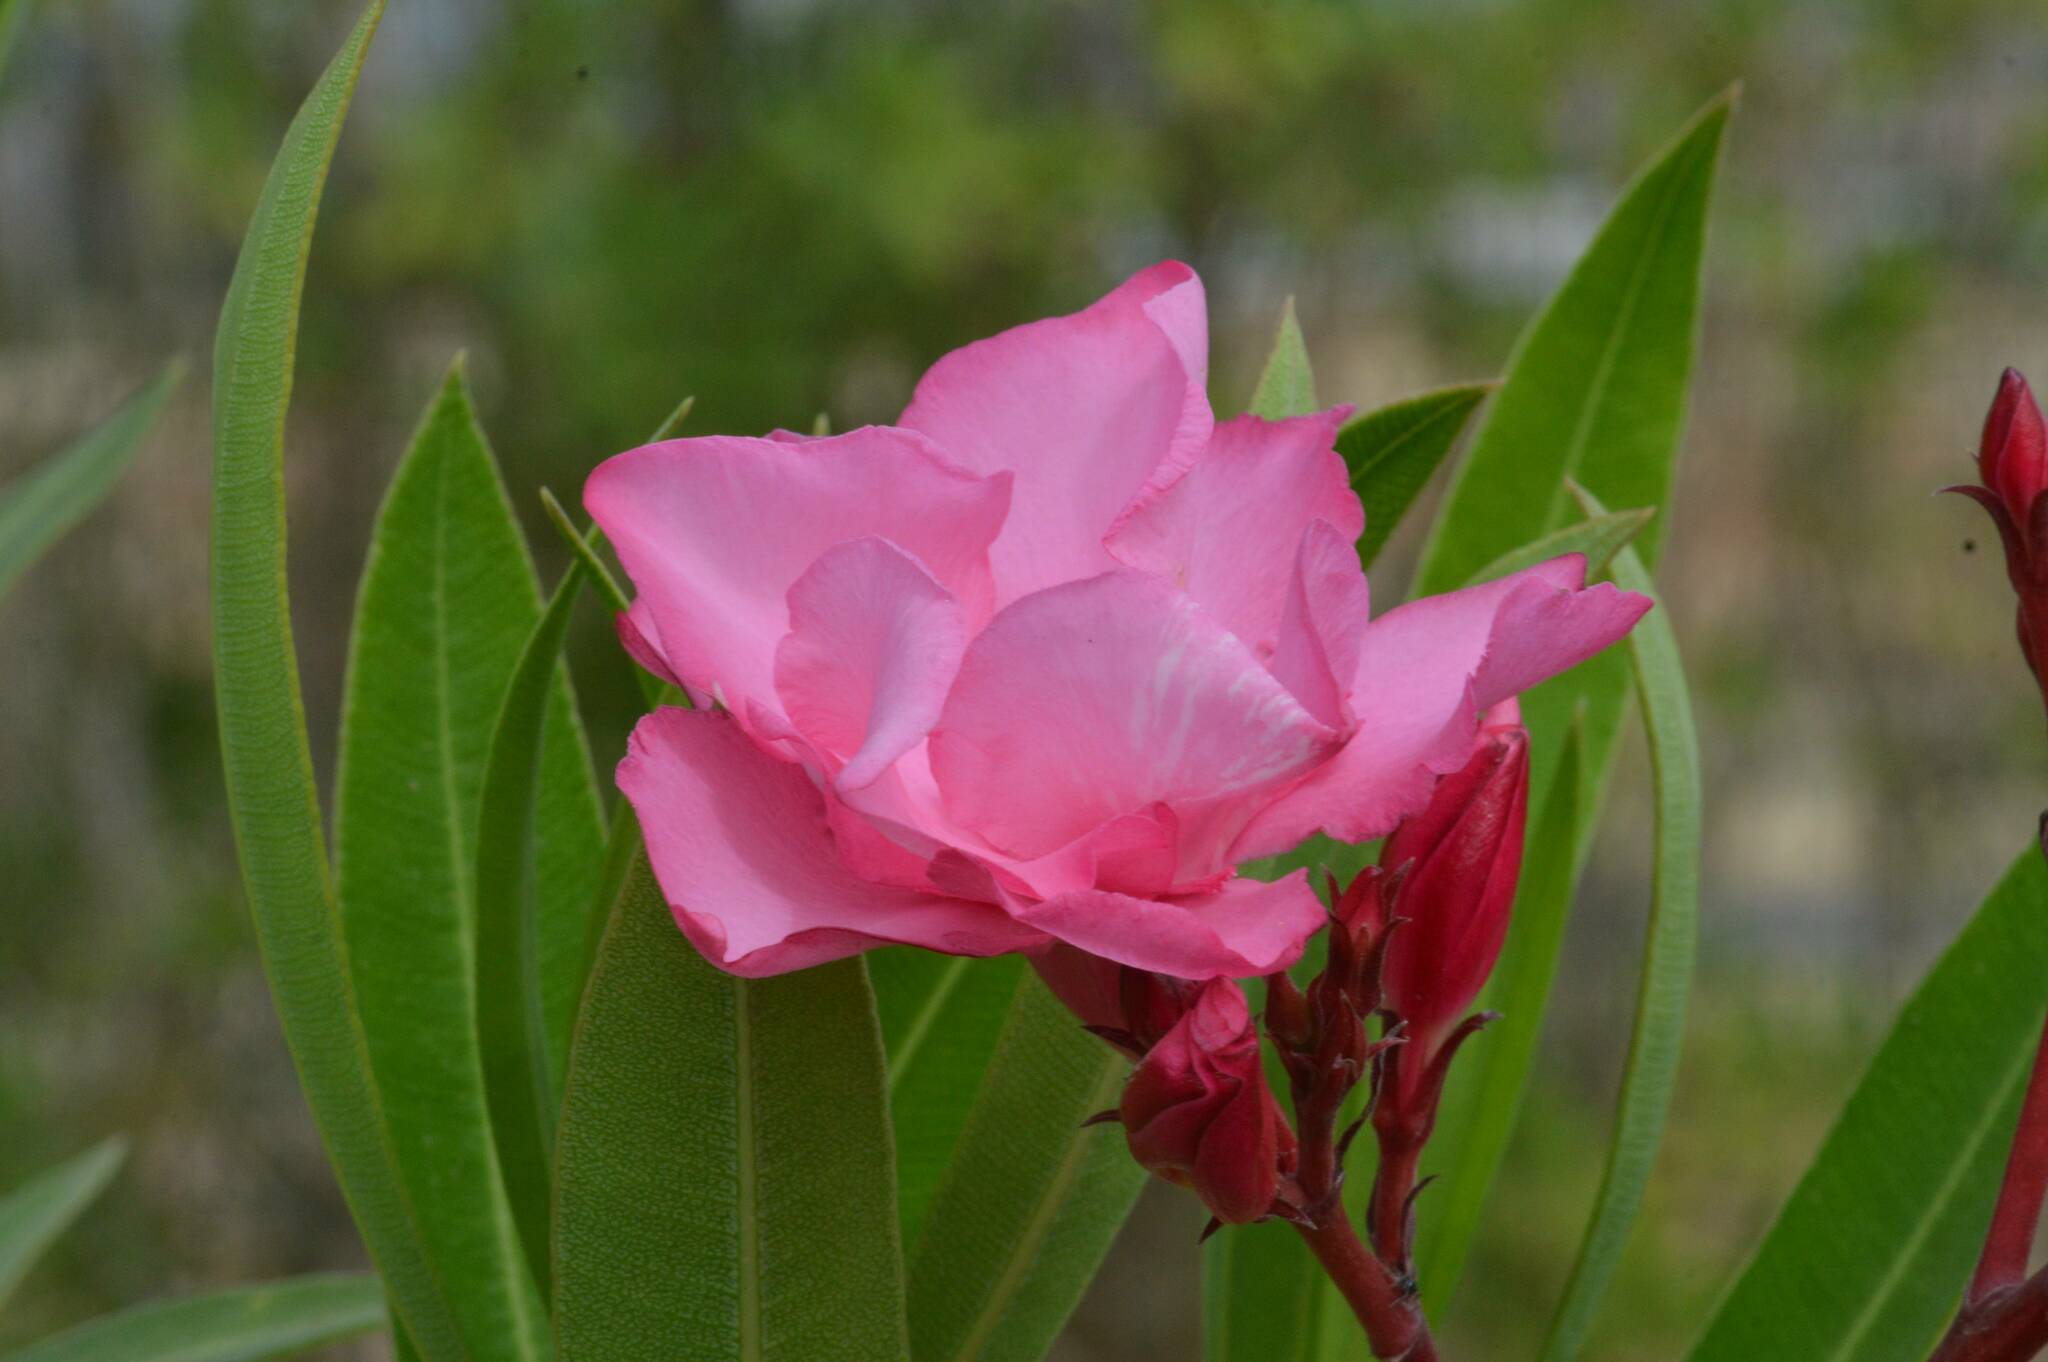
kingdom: Plantae
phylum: Tracheophyta
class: Magnoliopsida
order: Gentianales
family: Apocynaceae
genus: Nerium
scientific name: Nerium oleander
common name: Oleander
